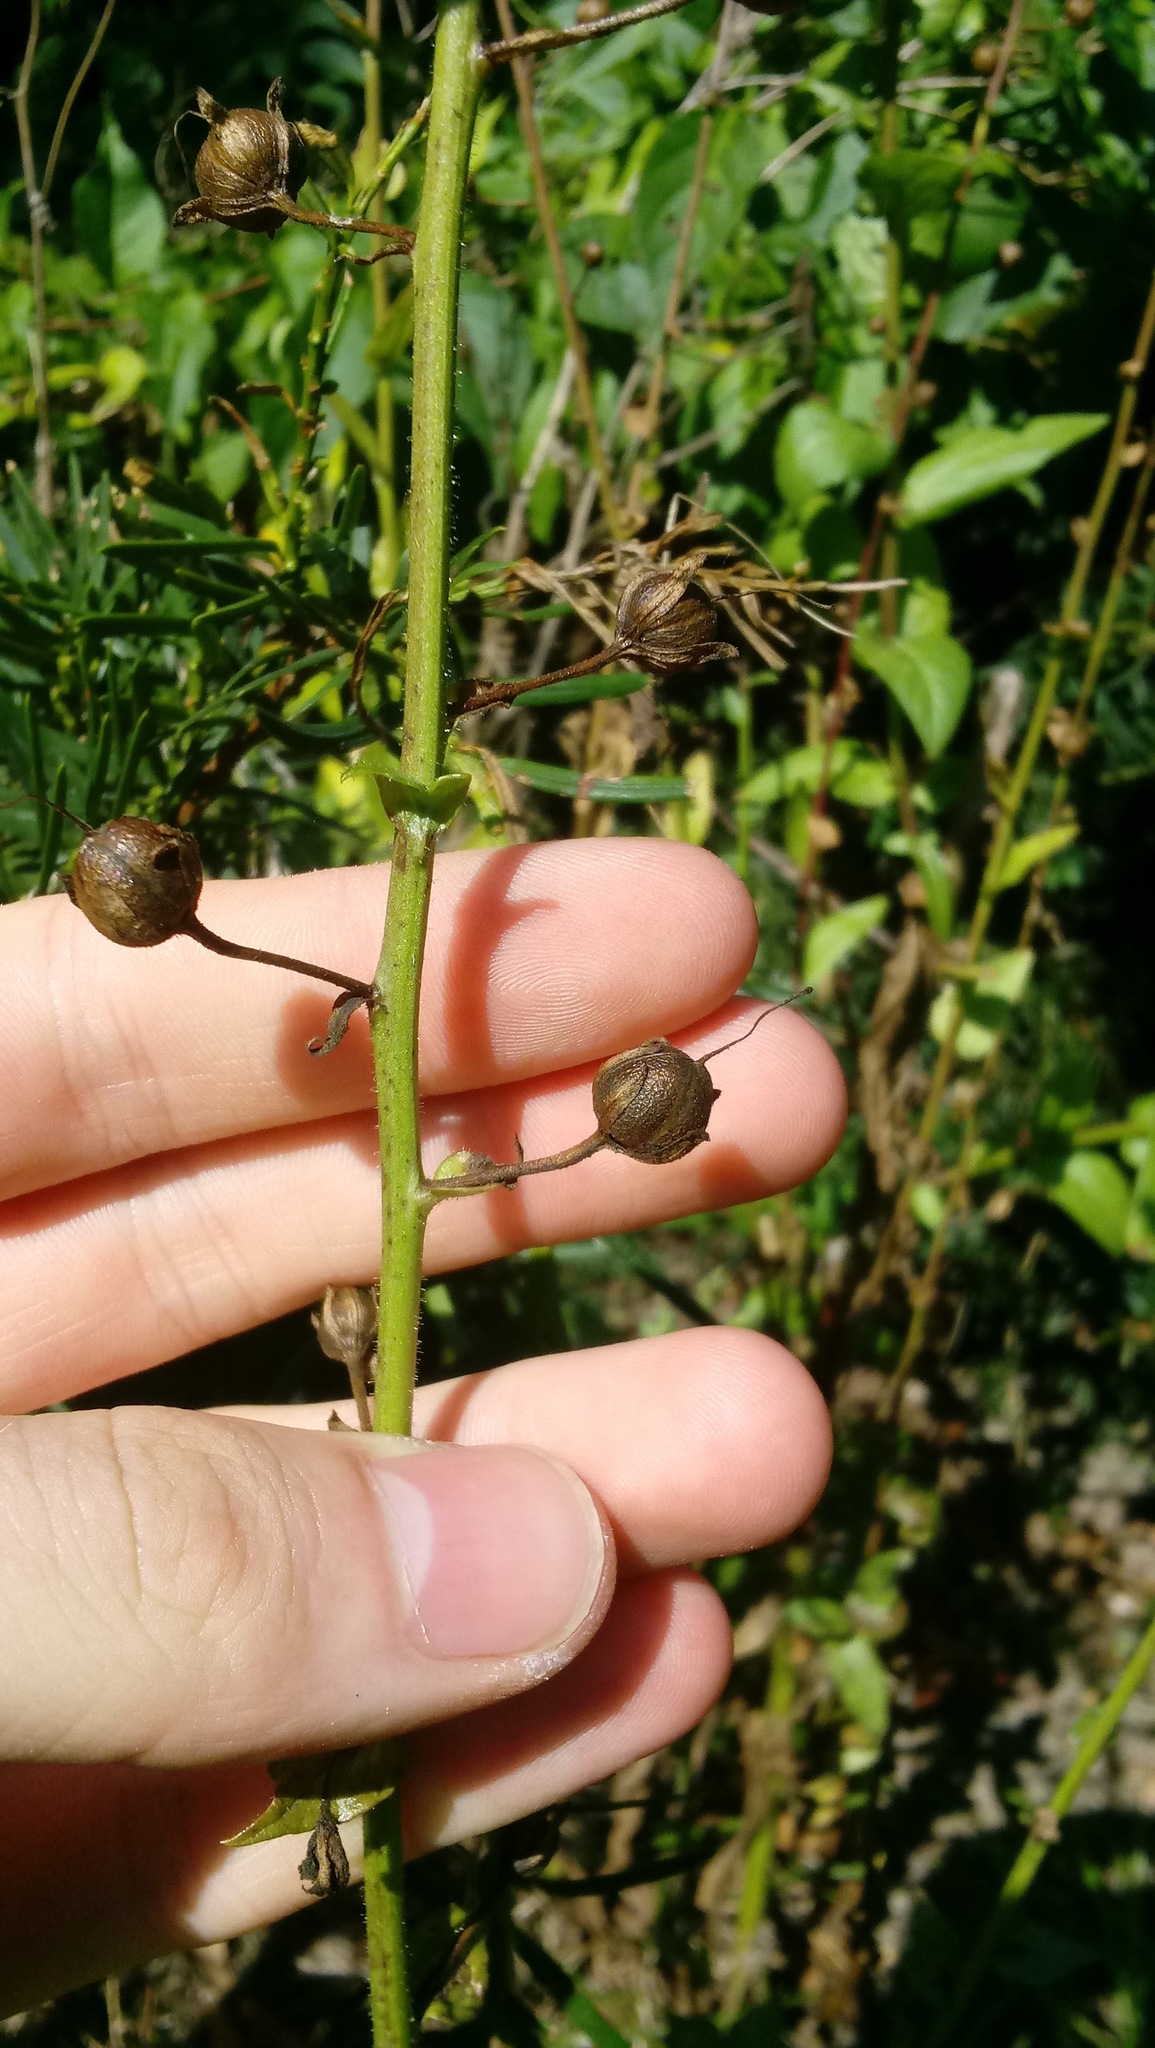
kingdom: Plantae
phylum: Tracheophyta
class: Magnoliopsida
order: Lamiales
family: Scrophulariaceae
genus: Verbascum
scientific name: Verbascum blattaria
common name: Moth mullein
